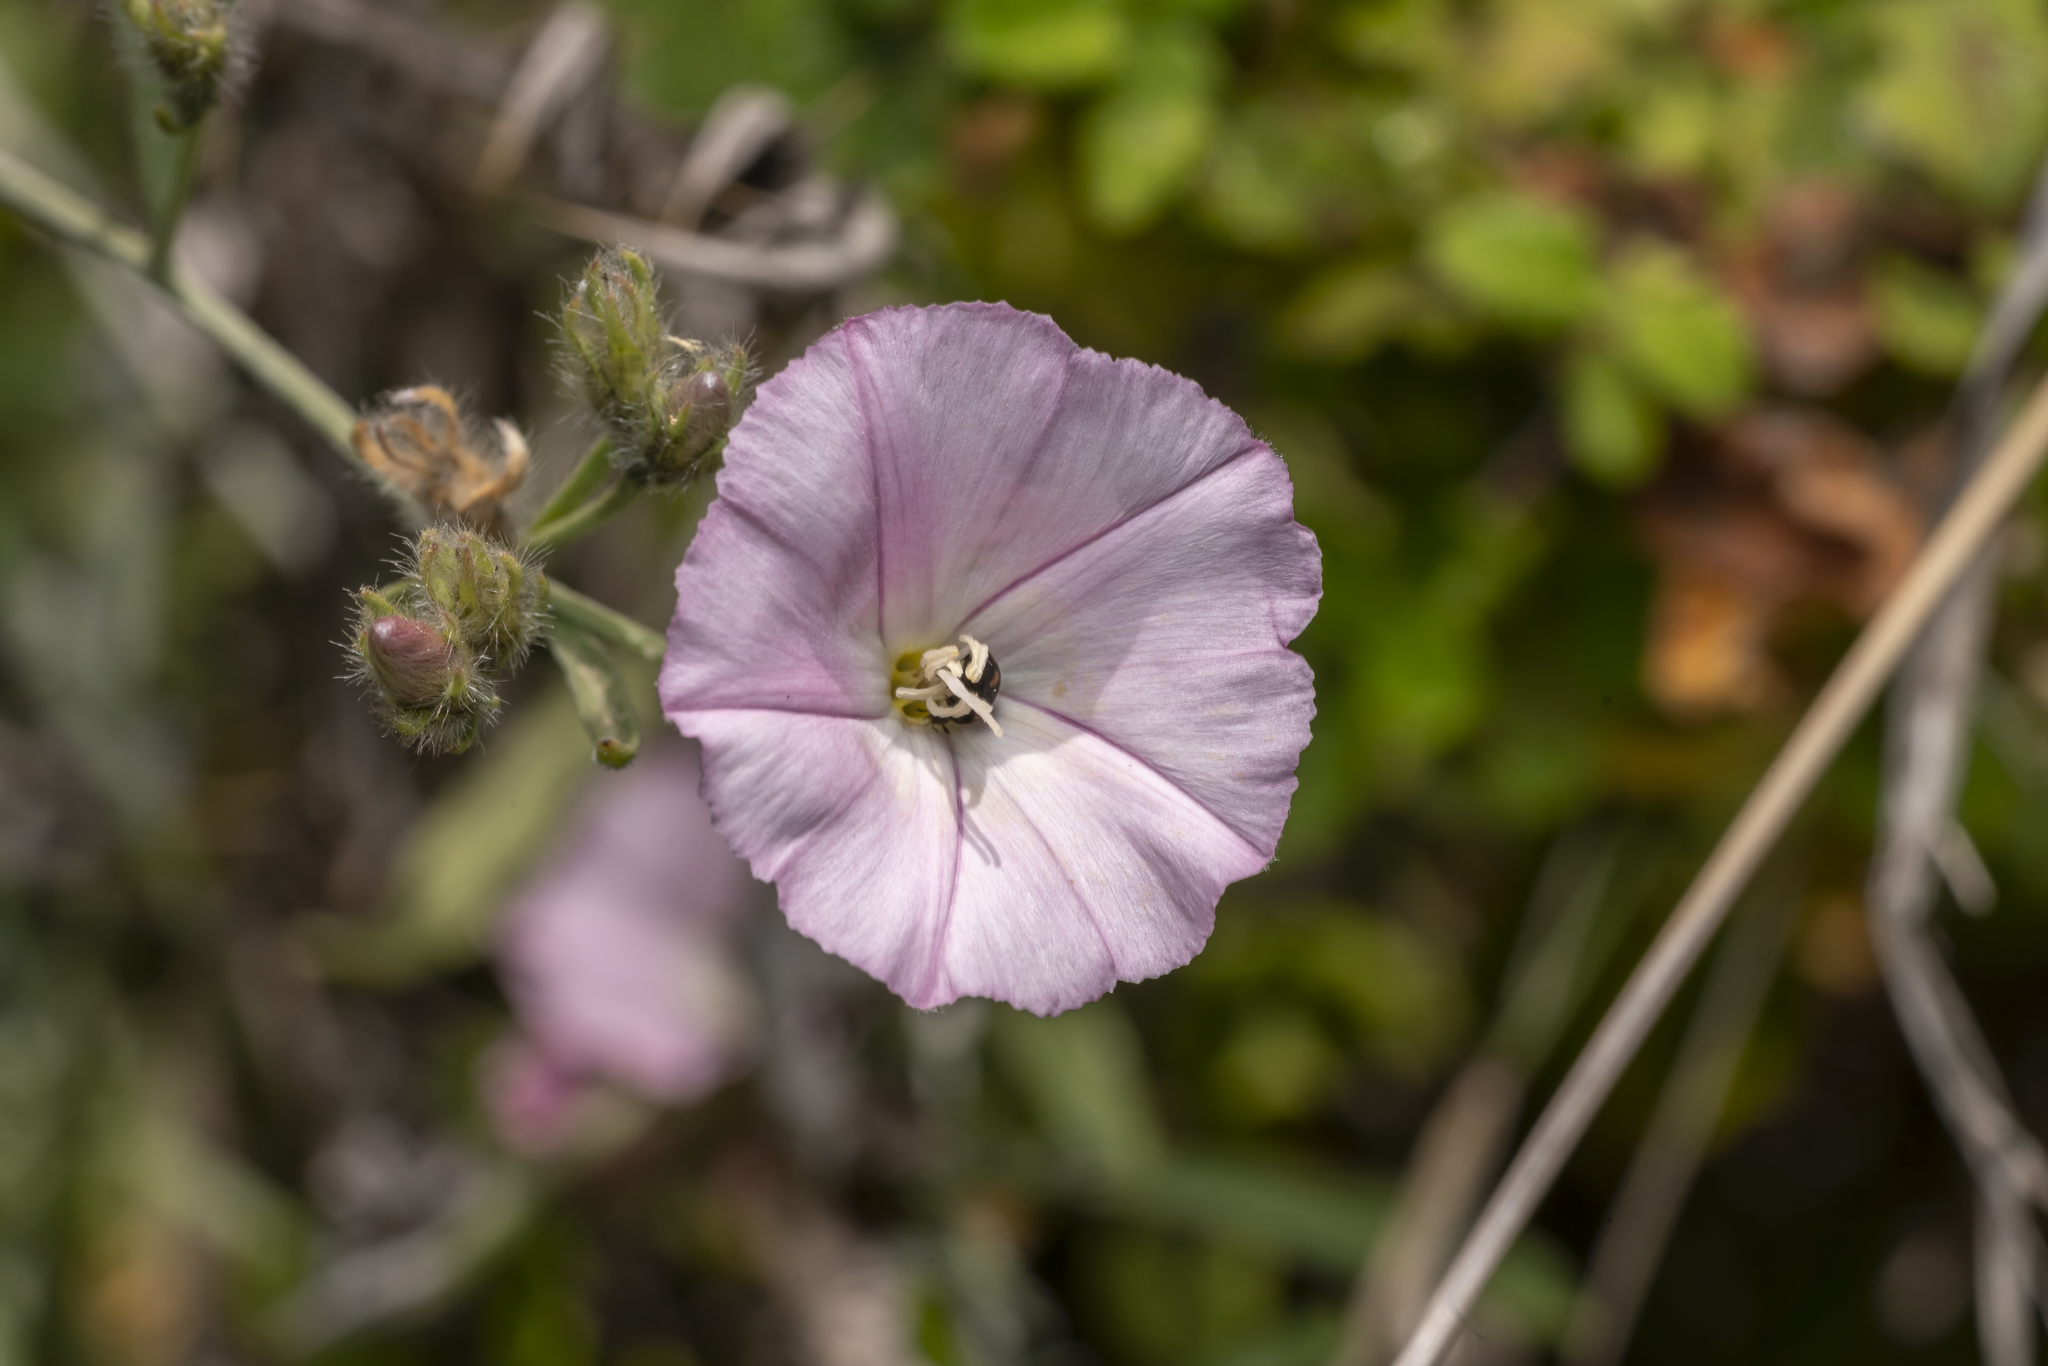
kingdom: Plantae
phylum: Tracheophyta
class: Magnoliopsida
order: Solanales
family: Convolvulaceae
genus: Convolvulus
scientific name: Convolvulus oleifolius
